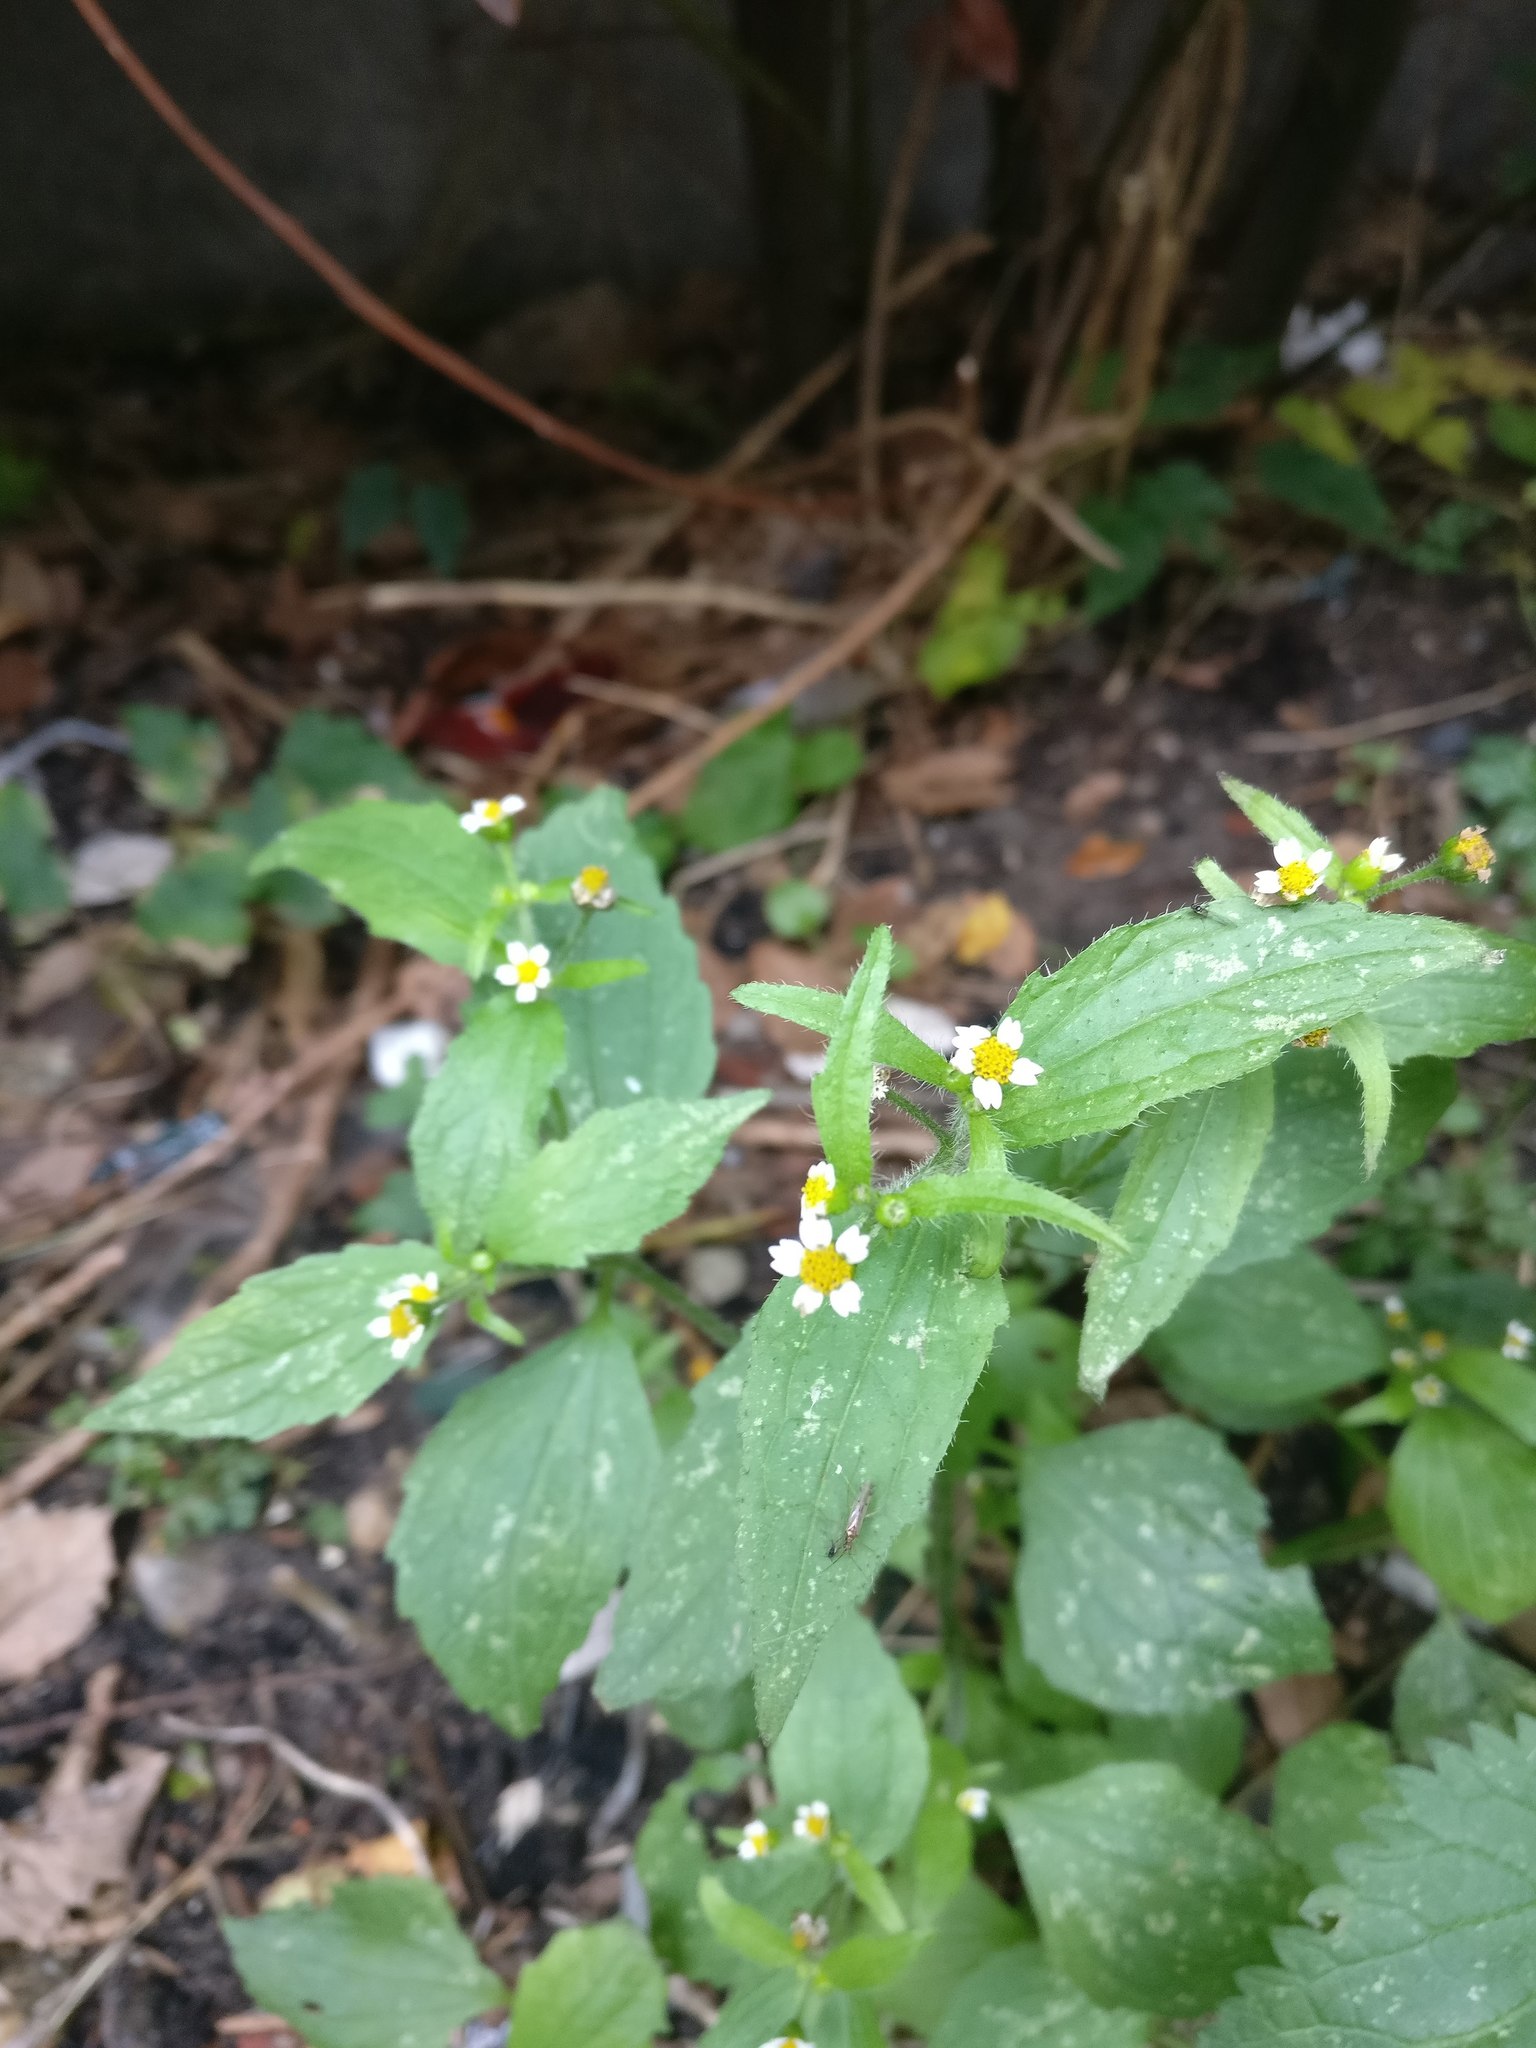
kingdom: Plantae
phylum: Tracheophyta
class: Magnoliopsida
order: Asterales
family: Asteraceae
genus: Galinsoga
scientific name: Galinsoga quadriradiata
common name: Shaggy soldier
